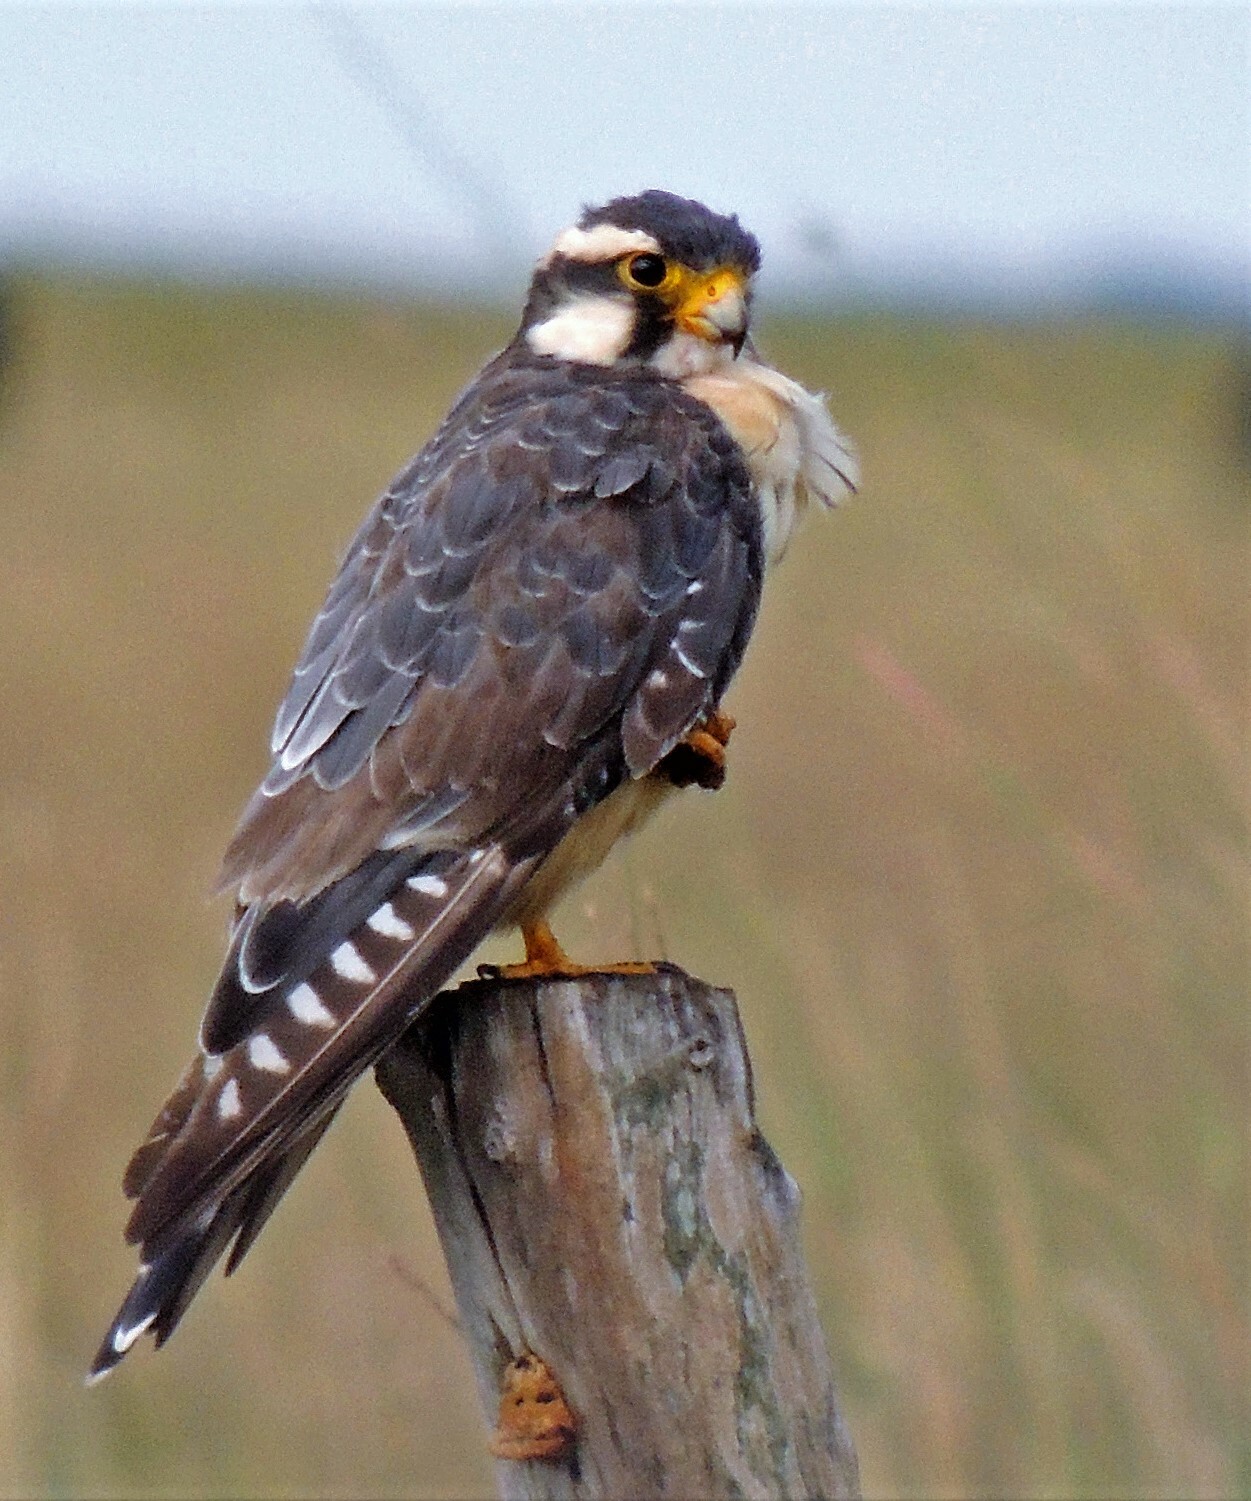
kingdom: Animalia
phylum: Chordata
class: Aves
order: Falconiformes
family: Falconidae
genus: Falco
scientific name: Falco femoralis
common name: Aplomado falcon
